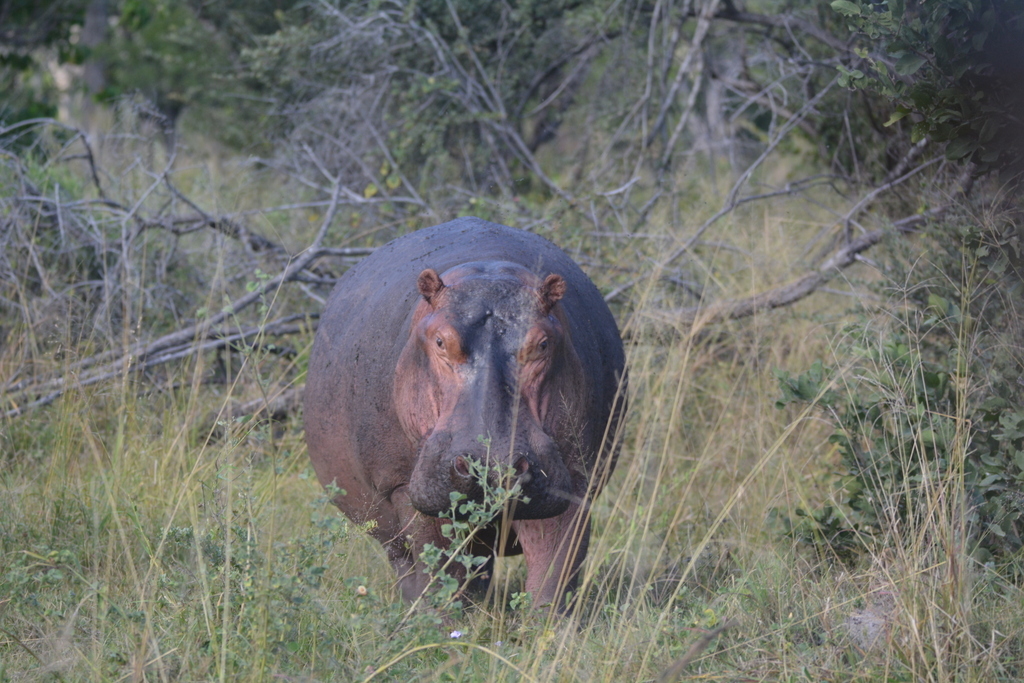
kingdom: Animalia
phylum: Chordata
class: Mammalia
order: Artiodactyla
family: Hippopotamidae
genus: Hippopotamus
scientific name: Hippopotamus amphibius
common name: Common hippopotamus
